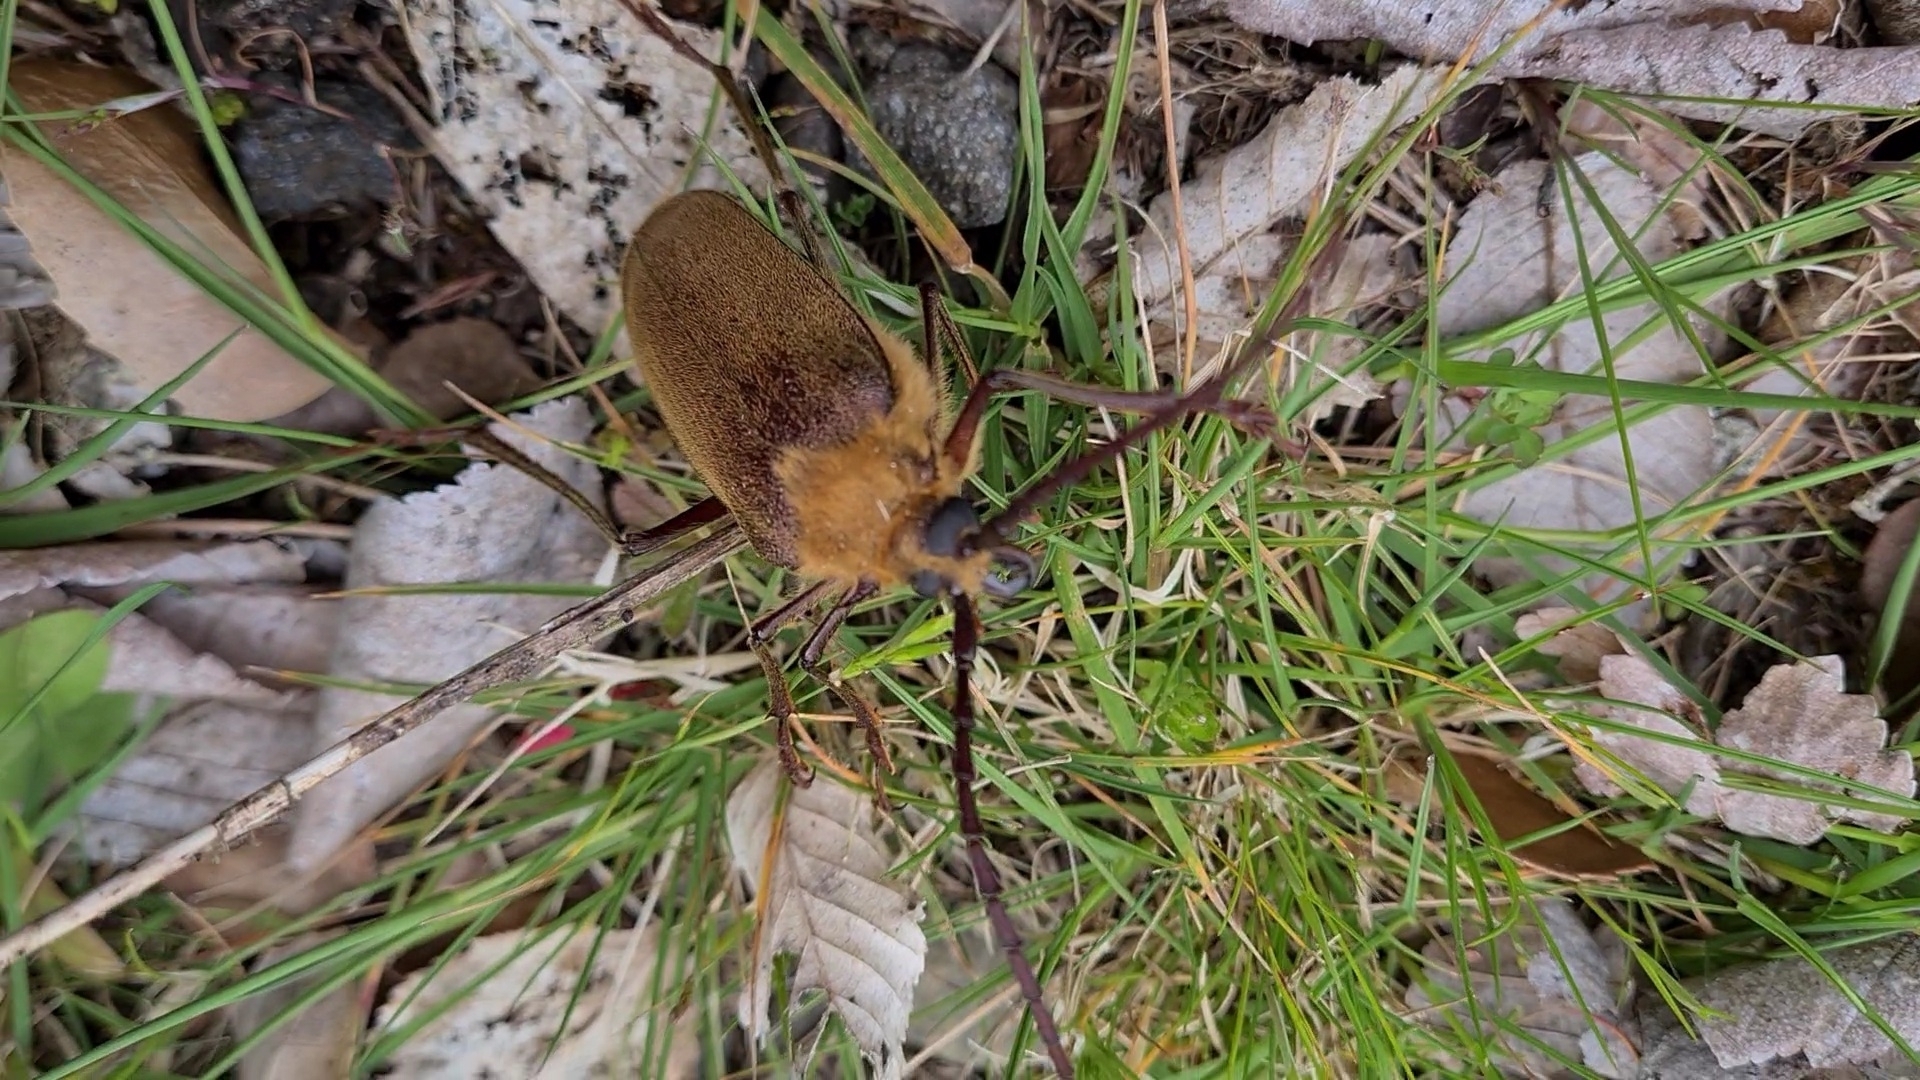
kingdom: Animalia
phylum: Arthropoda
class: Insecta
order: Coleoptera
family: Cerambycidae
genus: Acanthinodera
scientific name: Acanthinodera cumingii
